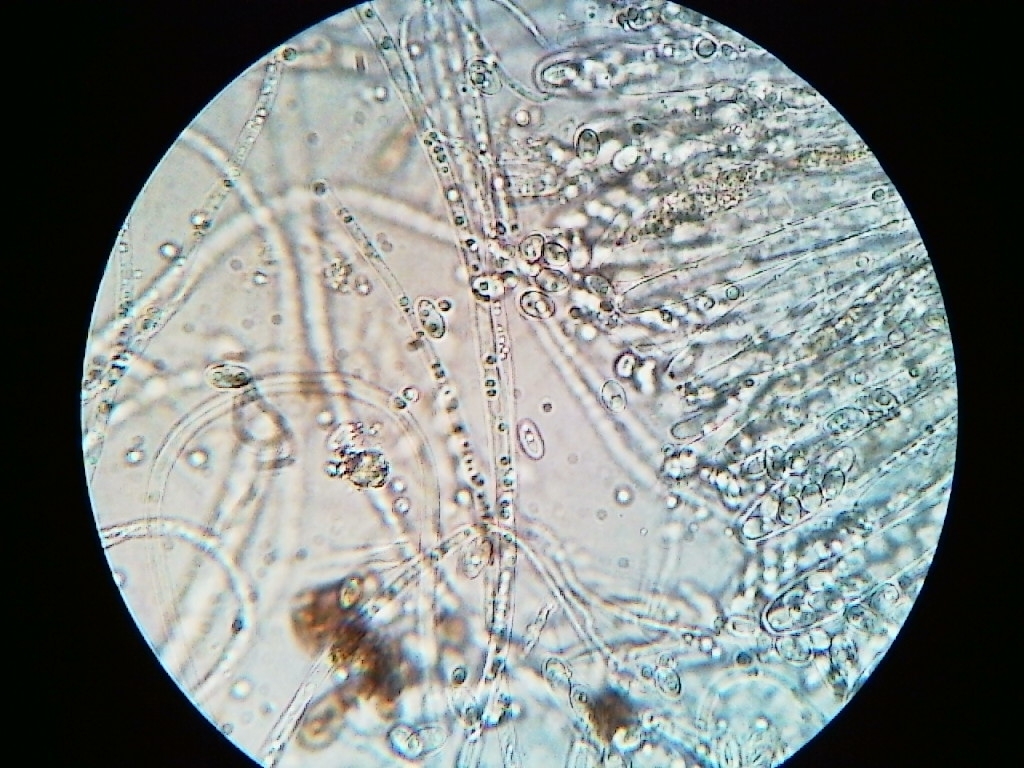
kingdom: Fungi
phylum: Ascomycota
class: Leotiomycetes
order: Helotiales
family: Gelatinodiscaceae
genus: Neobulgaria
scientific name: Neobulgaria pura
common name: Beech jelly-disc
